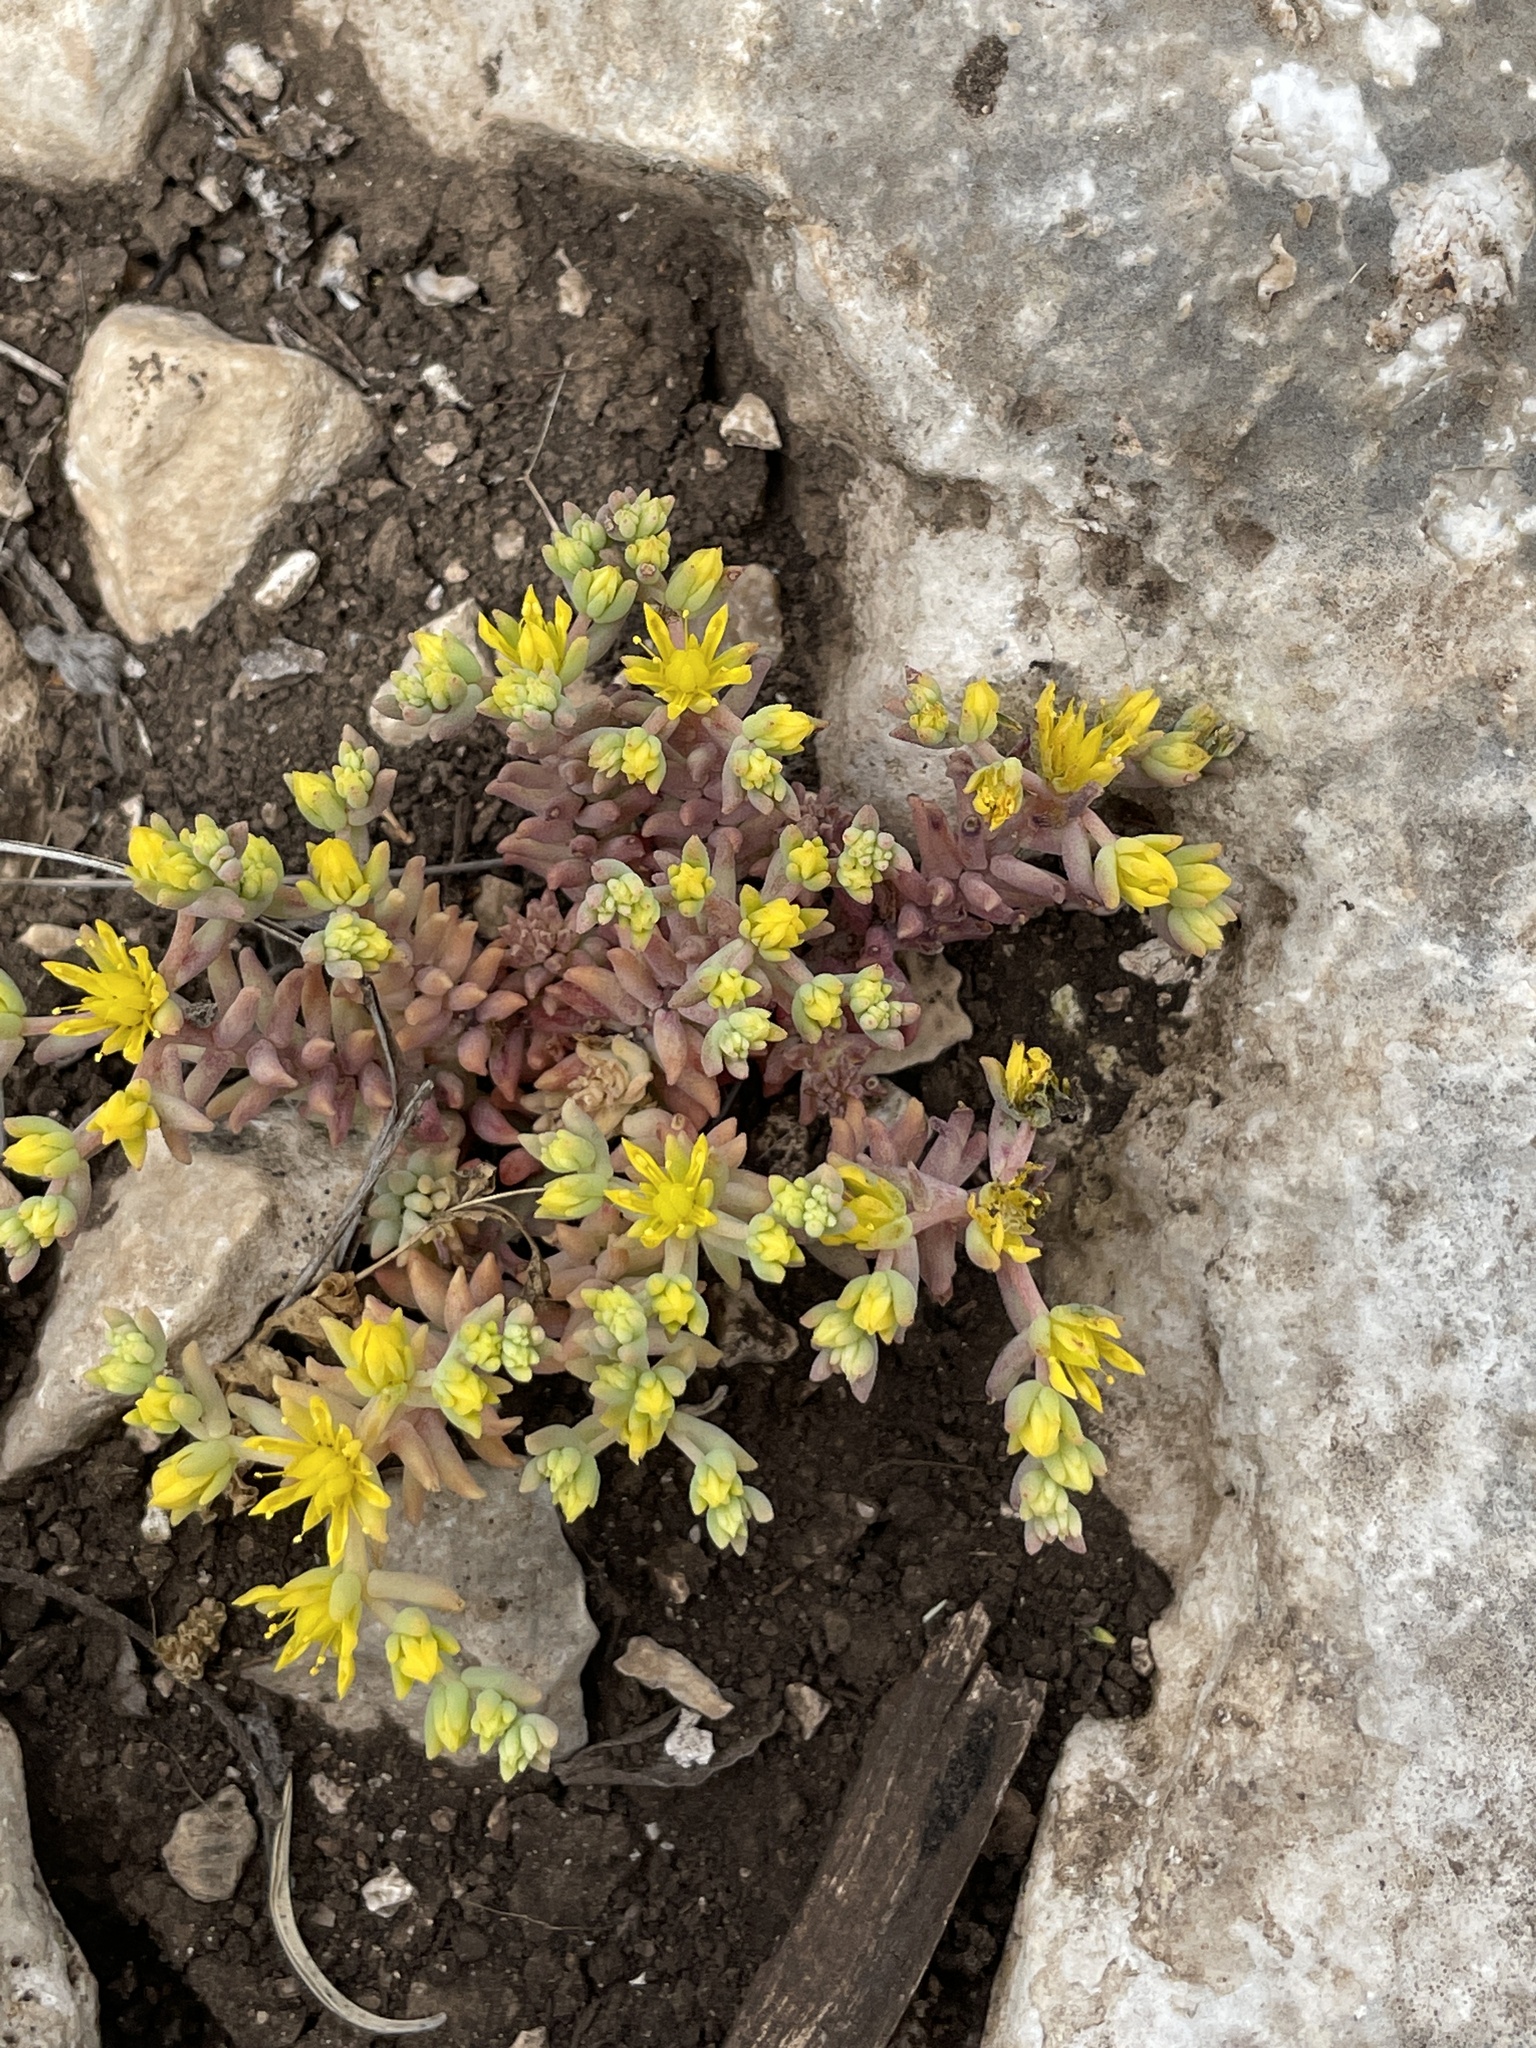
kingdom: Plantae
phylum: Tracheophyta
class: Magnoliopsida
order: Saxifragales
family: Crassulaceae
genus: Sedum
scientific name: Sedum nuttallii
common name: Yellow stonecrop
